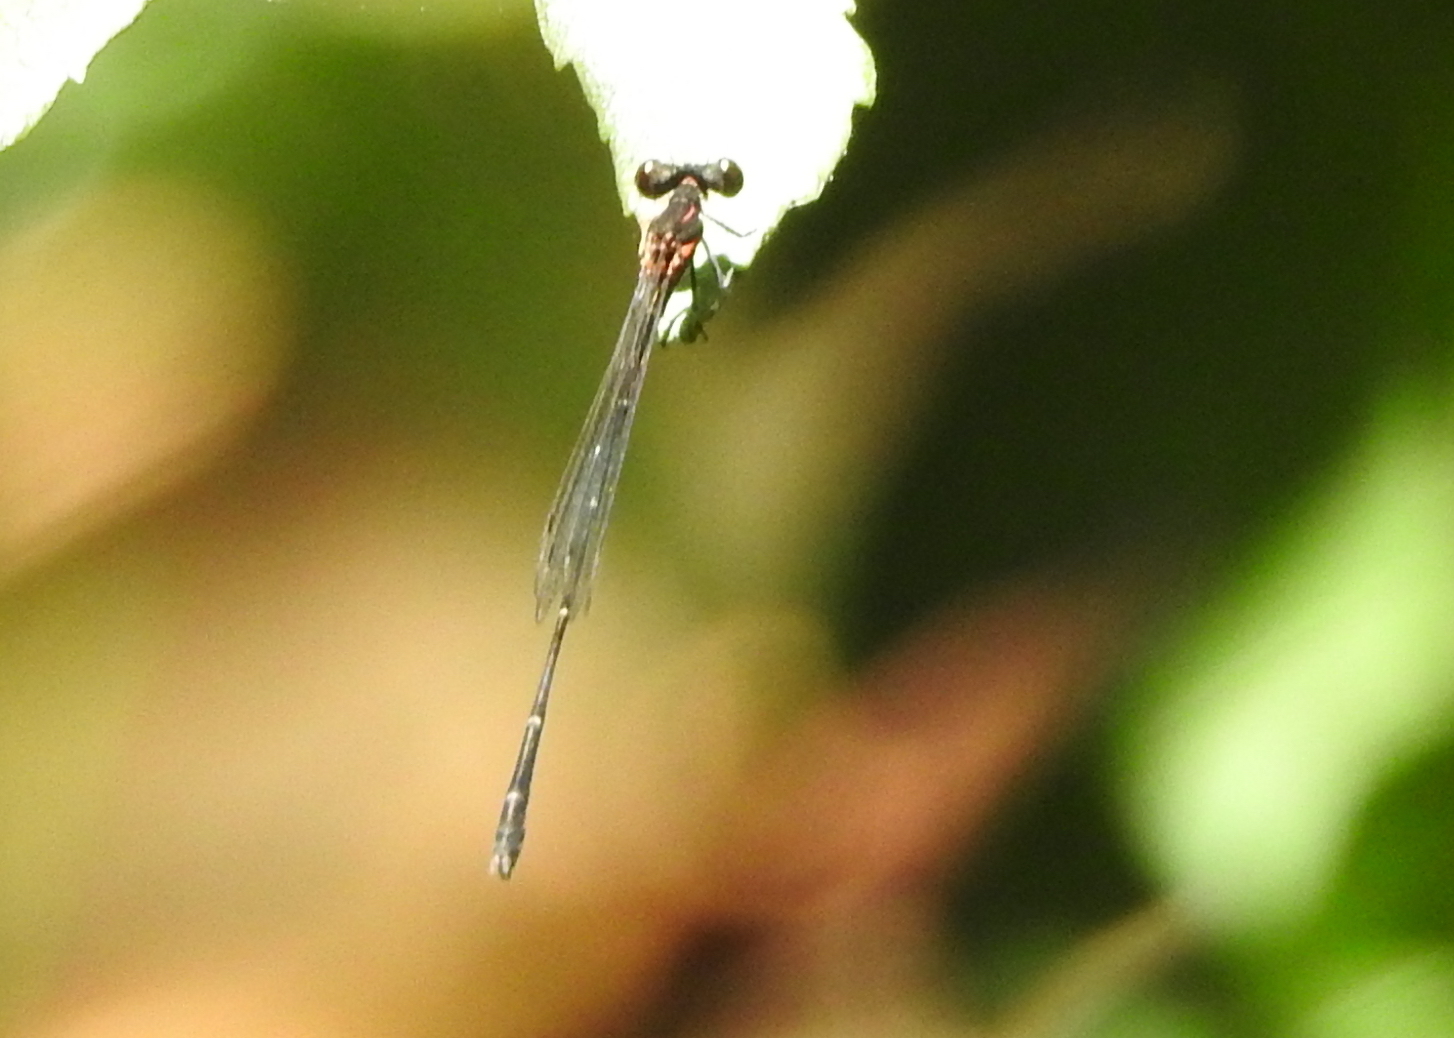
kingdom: Animalia
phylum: Arthropoda
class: Insecta
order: Odonata
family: Platycnemididae
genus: Prodasineura
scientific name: Prodasineura verticalis
